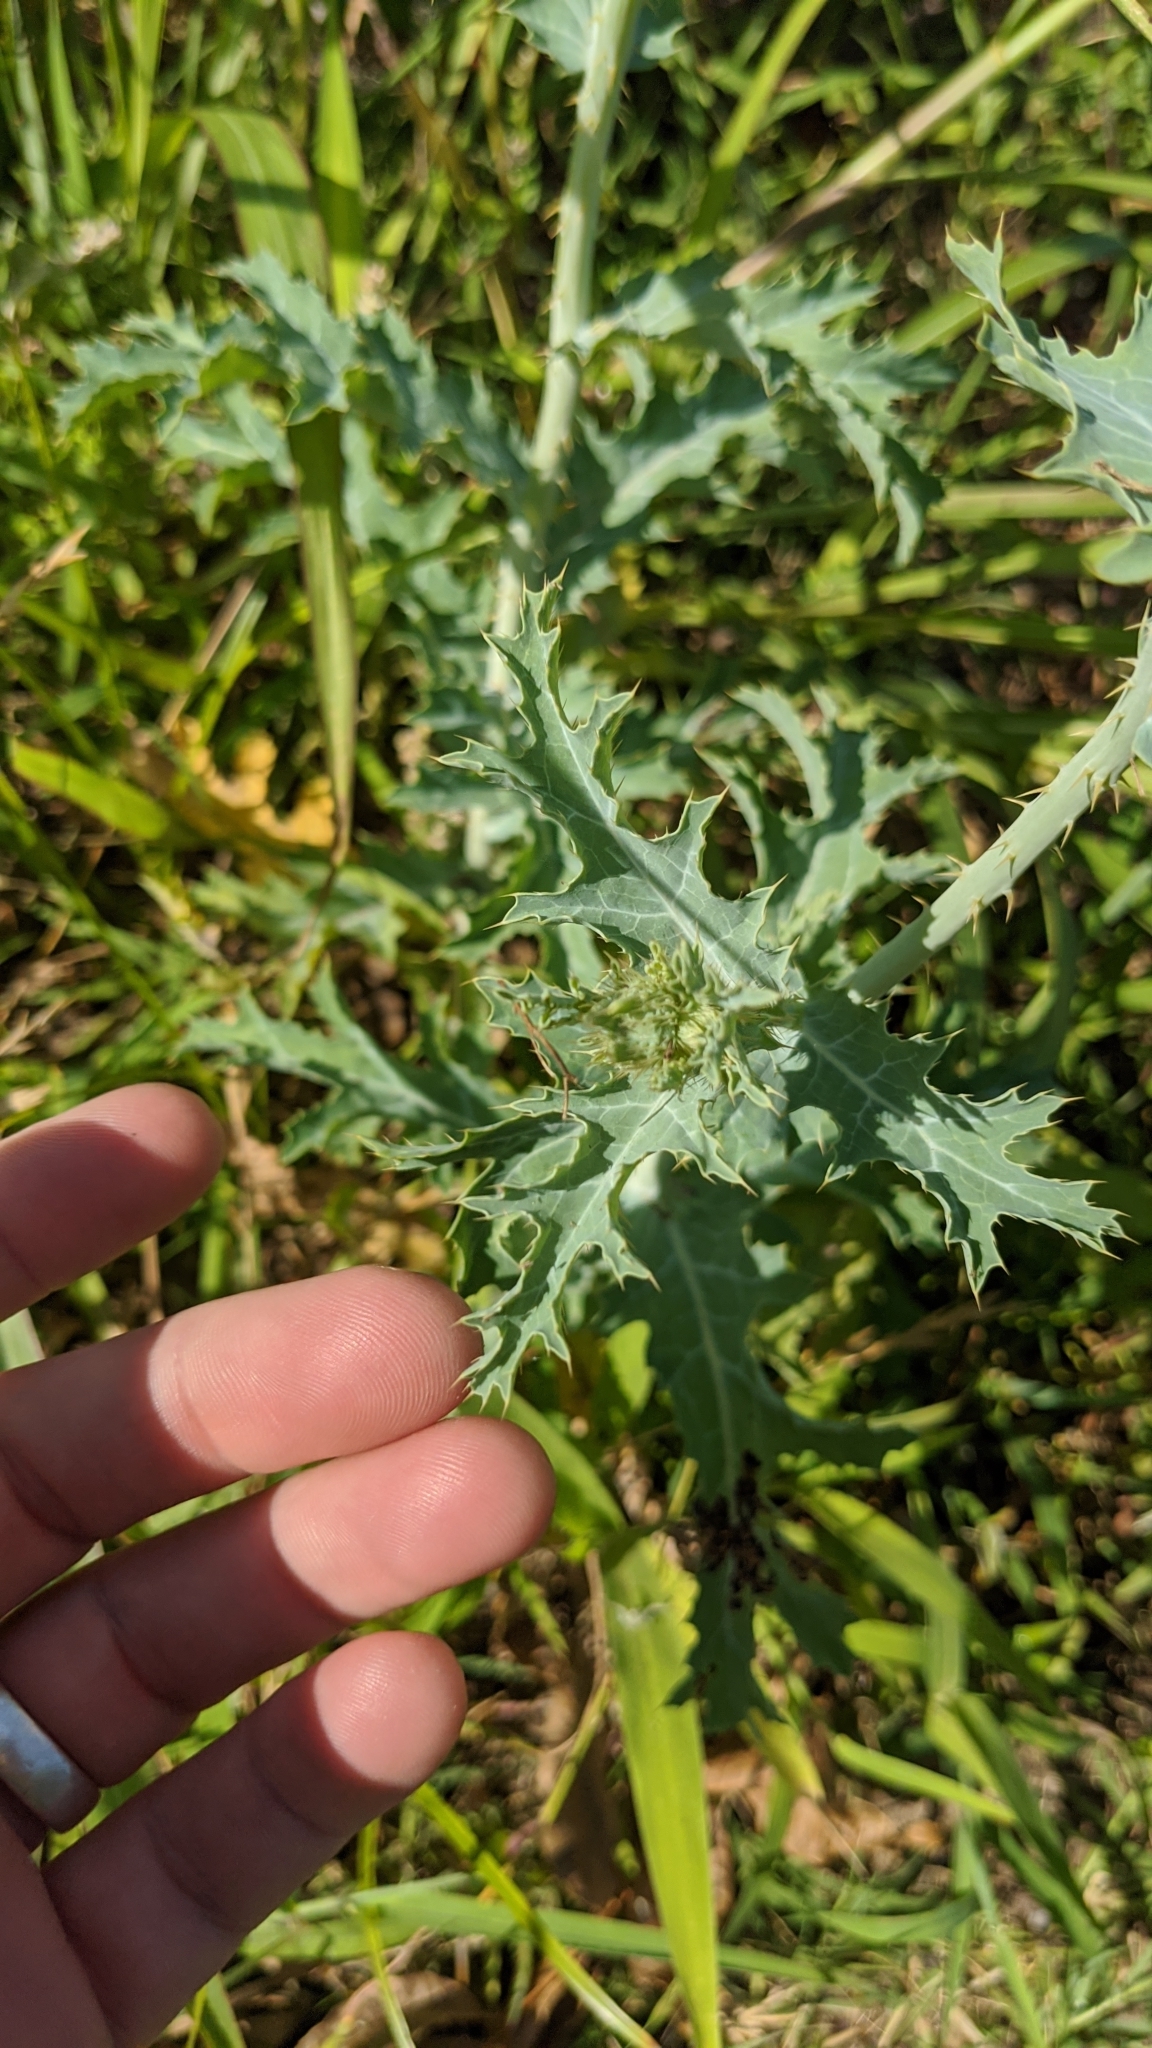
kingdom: Plantae
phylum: Tracheophyta
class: Magnoliopsida
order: Ranunculales
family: Papaveraceae
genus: Argemone
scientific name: Argemone albiflora
